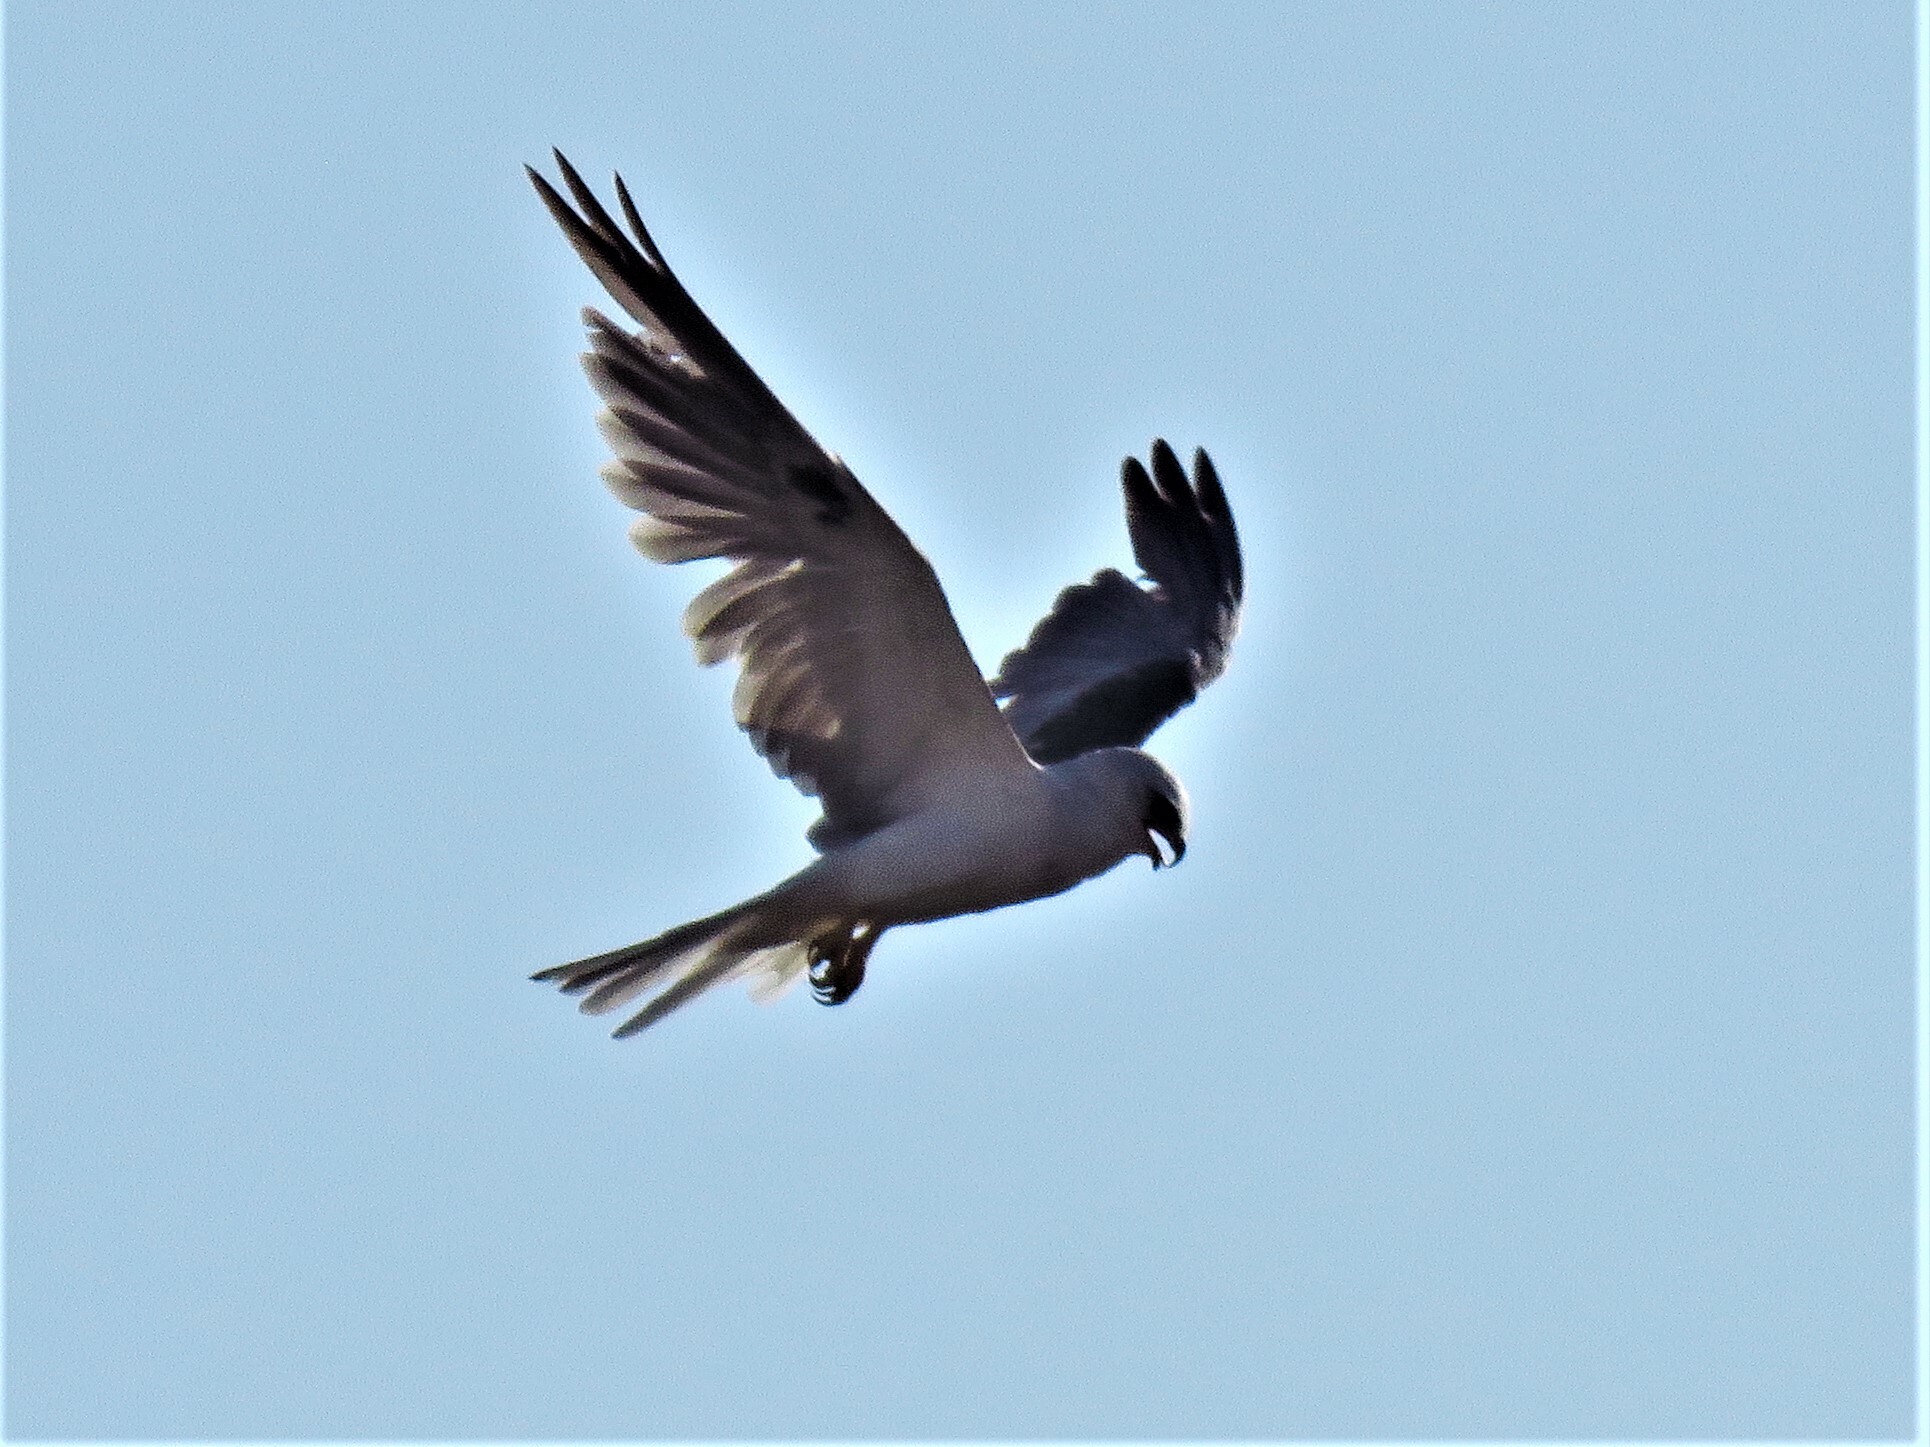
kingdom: Animalia
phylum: Chordata
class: Aves
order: Accipitriformes
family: Accipitridae
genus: Elanus
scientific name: Elanus leucurus
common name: White-tailed kite
